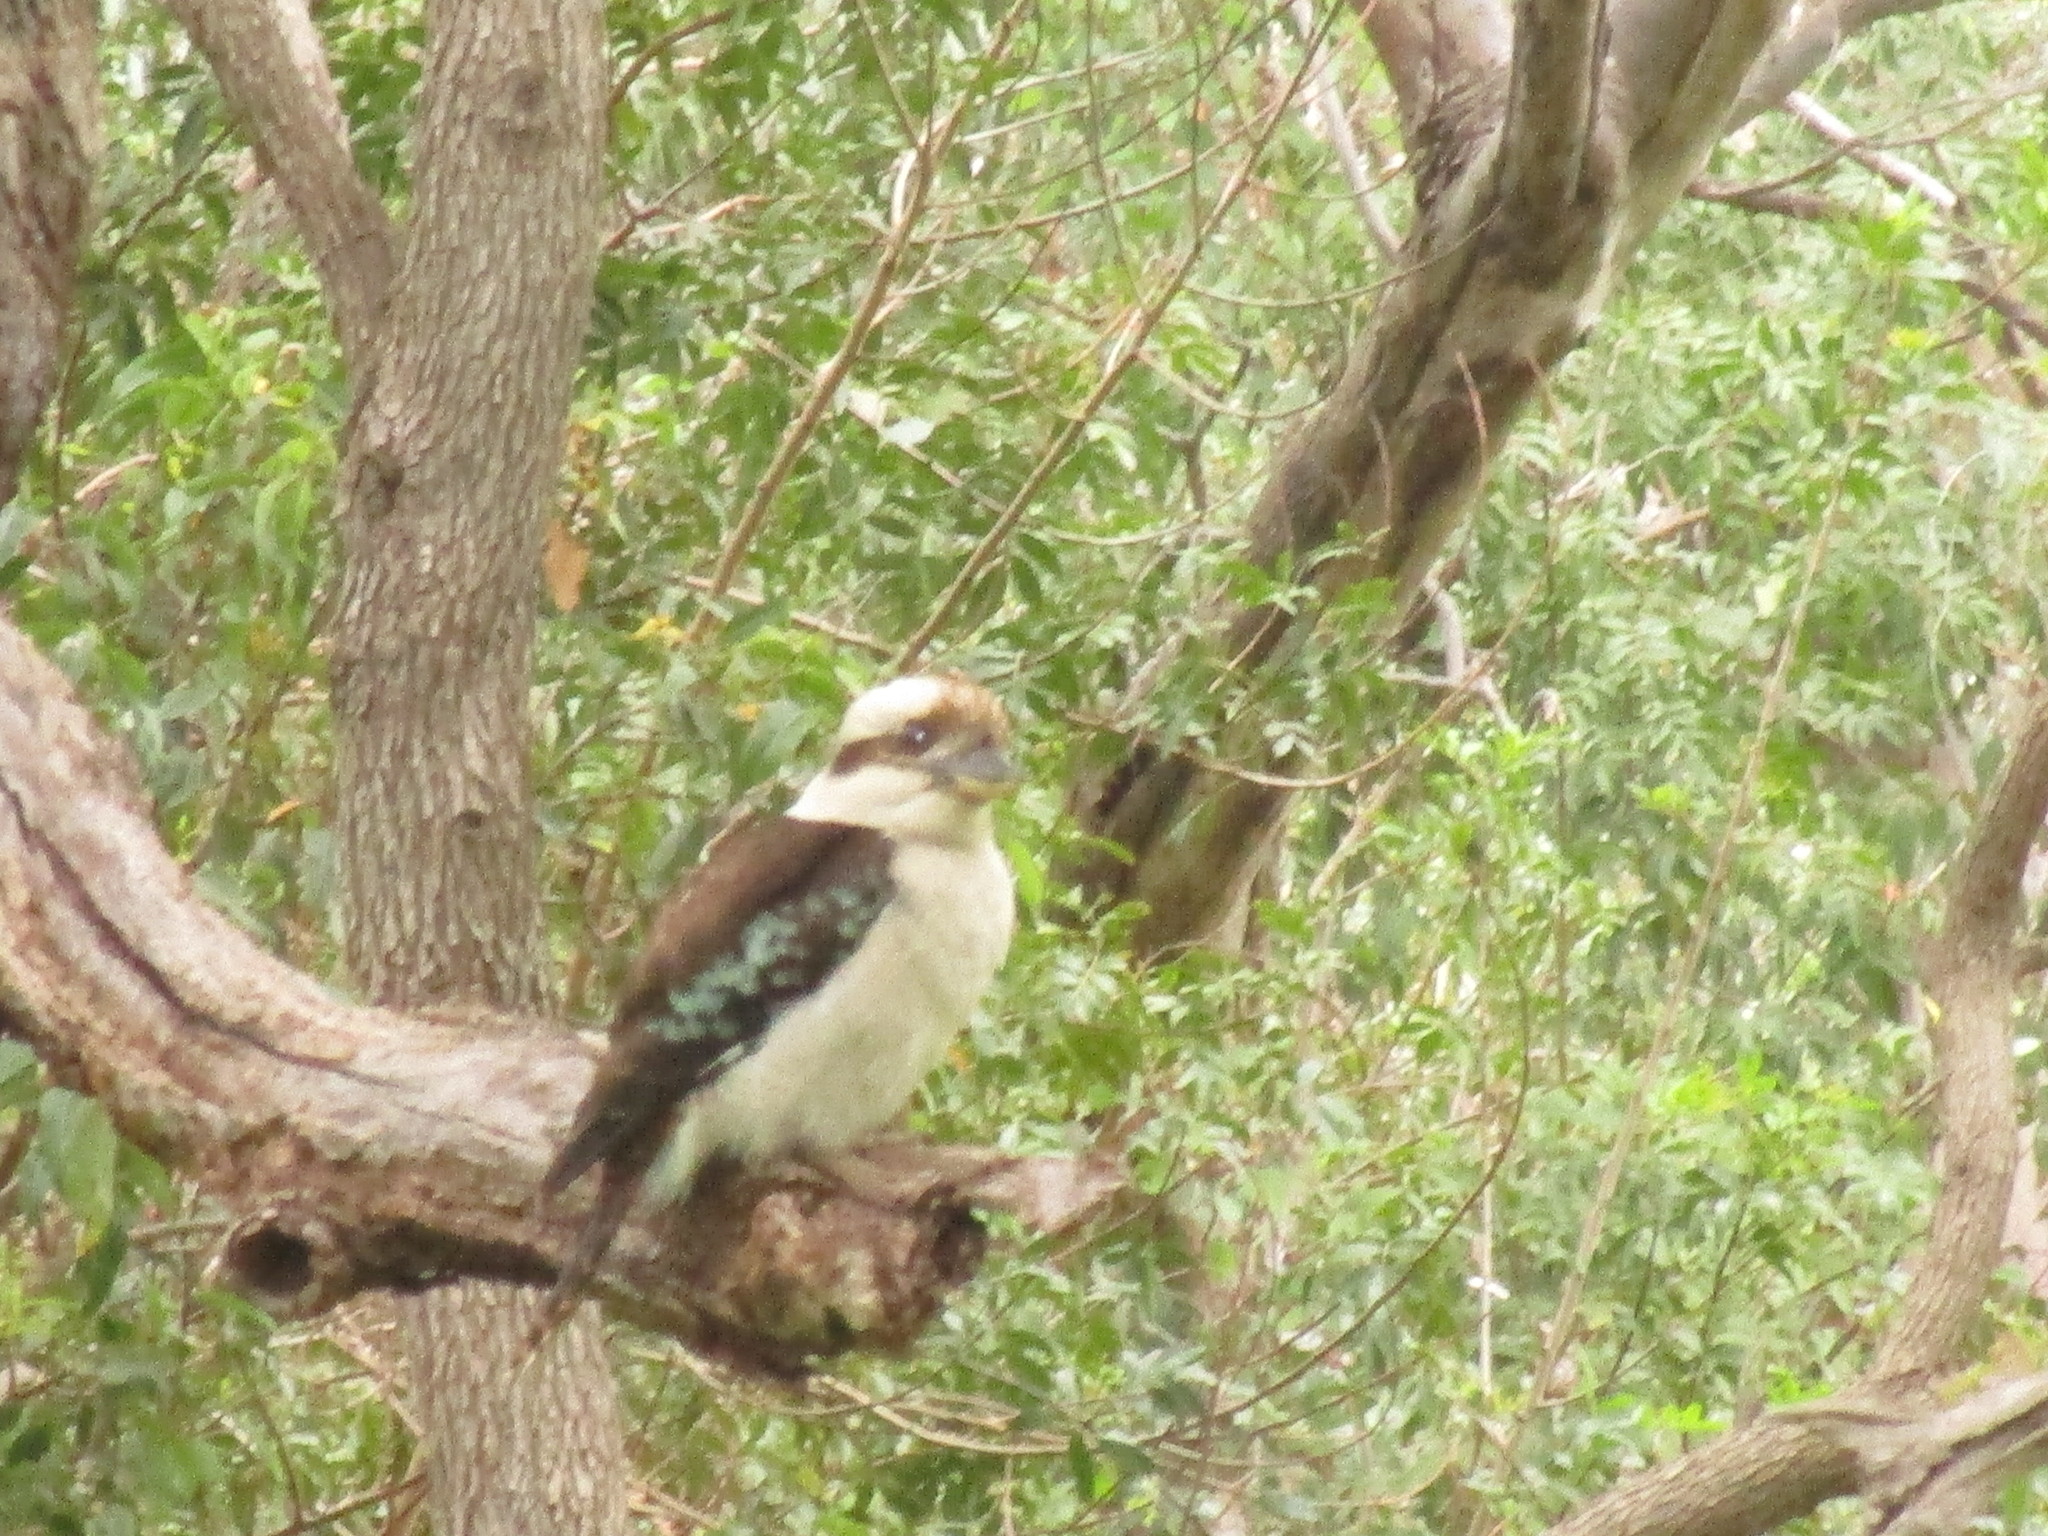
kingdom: Animalia
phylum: Chordata
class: Aves
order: Coraciiformes
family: Alcedinidae
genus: Dacelo
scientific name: Dacelo novaeguineae
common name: Laughing kookaburra
